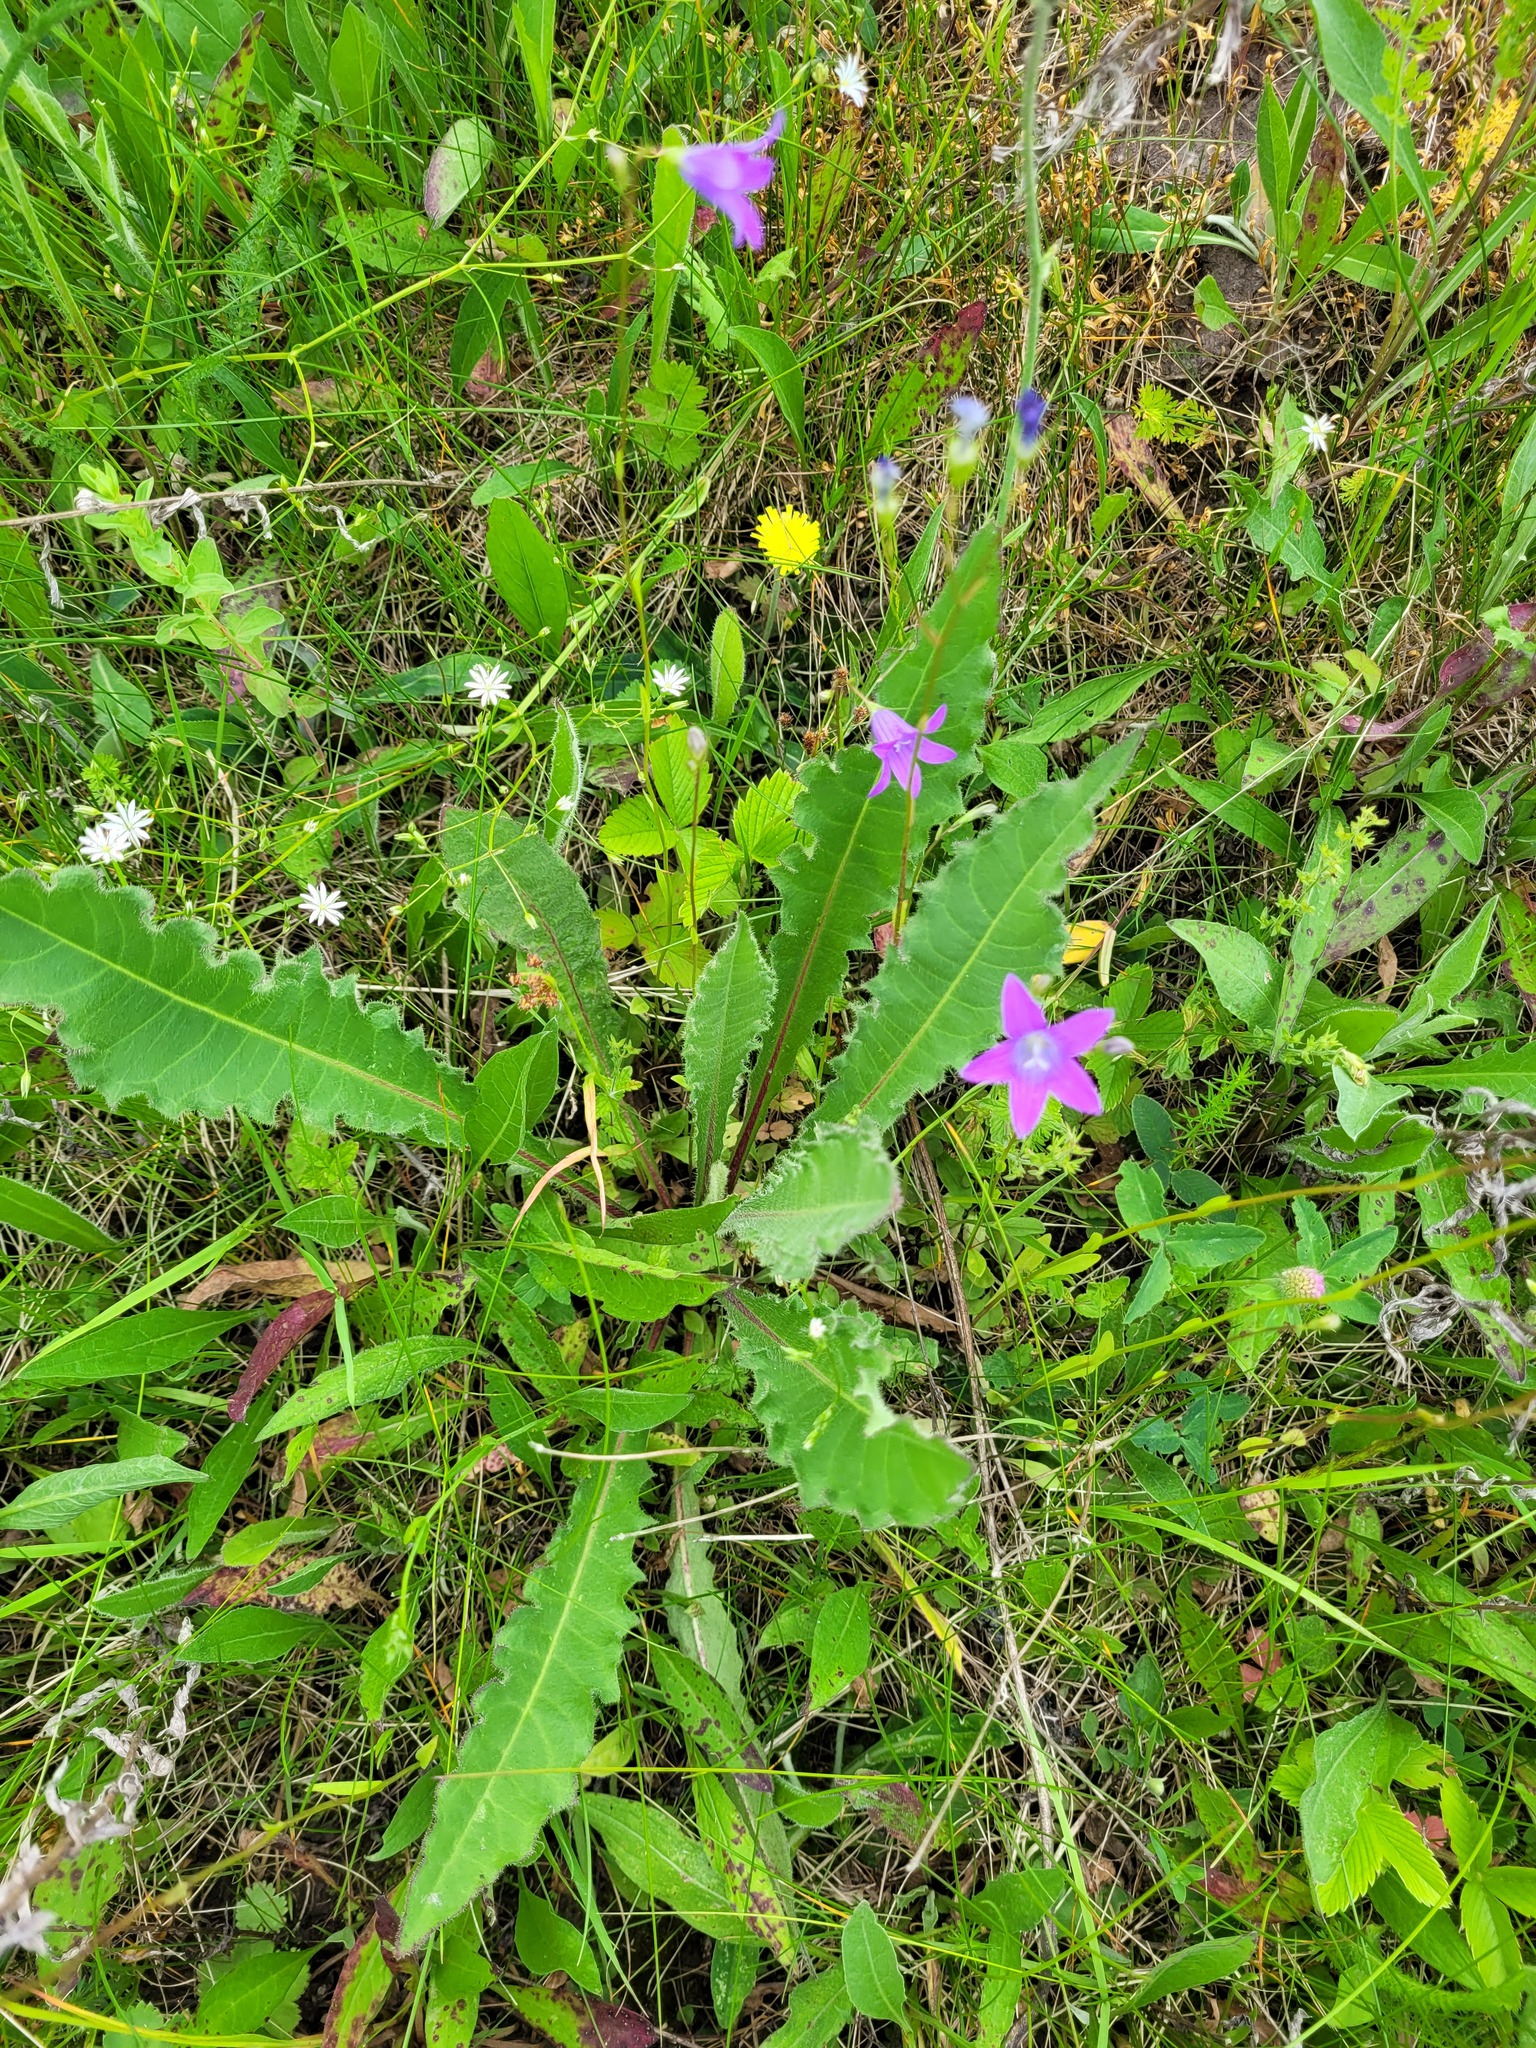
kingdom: Plantae
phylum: Tracheophyta
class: Magnoliopsida
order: Asterales
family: Asteraceae
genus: Picris
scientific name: Picris hieracioides
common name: Hawkweed oxtongue
